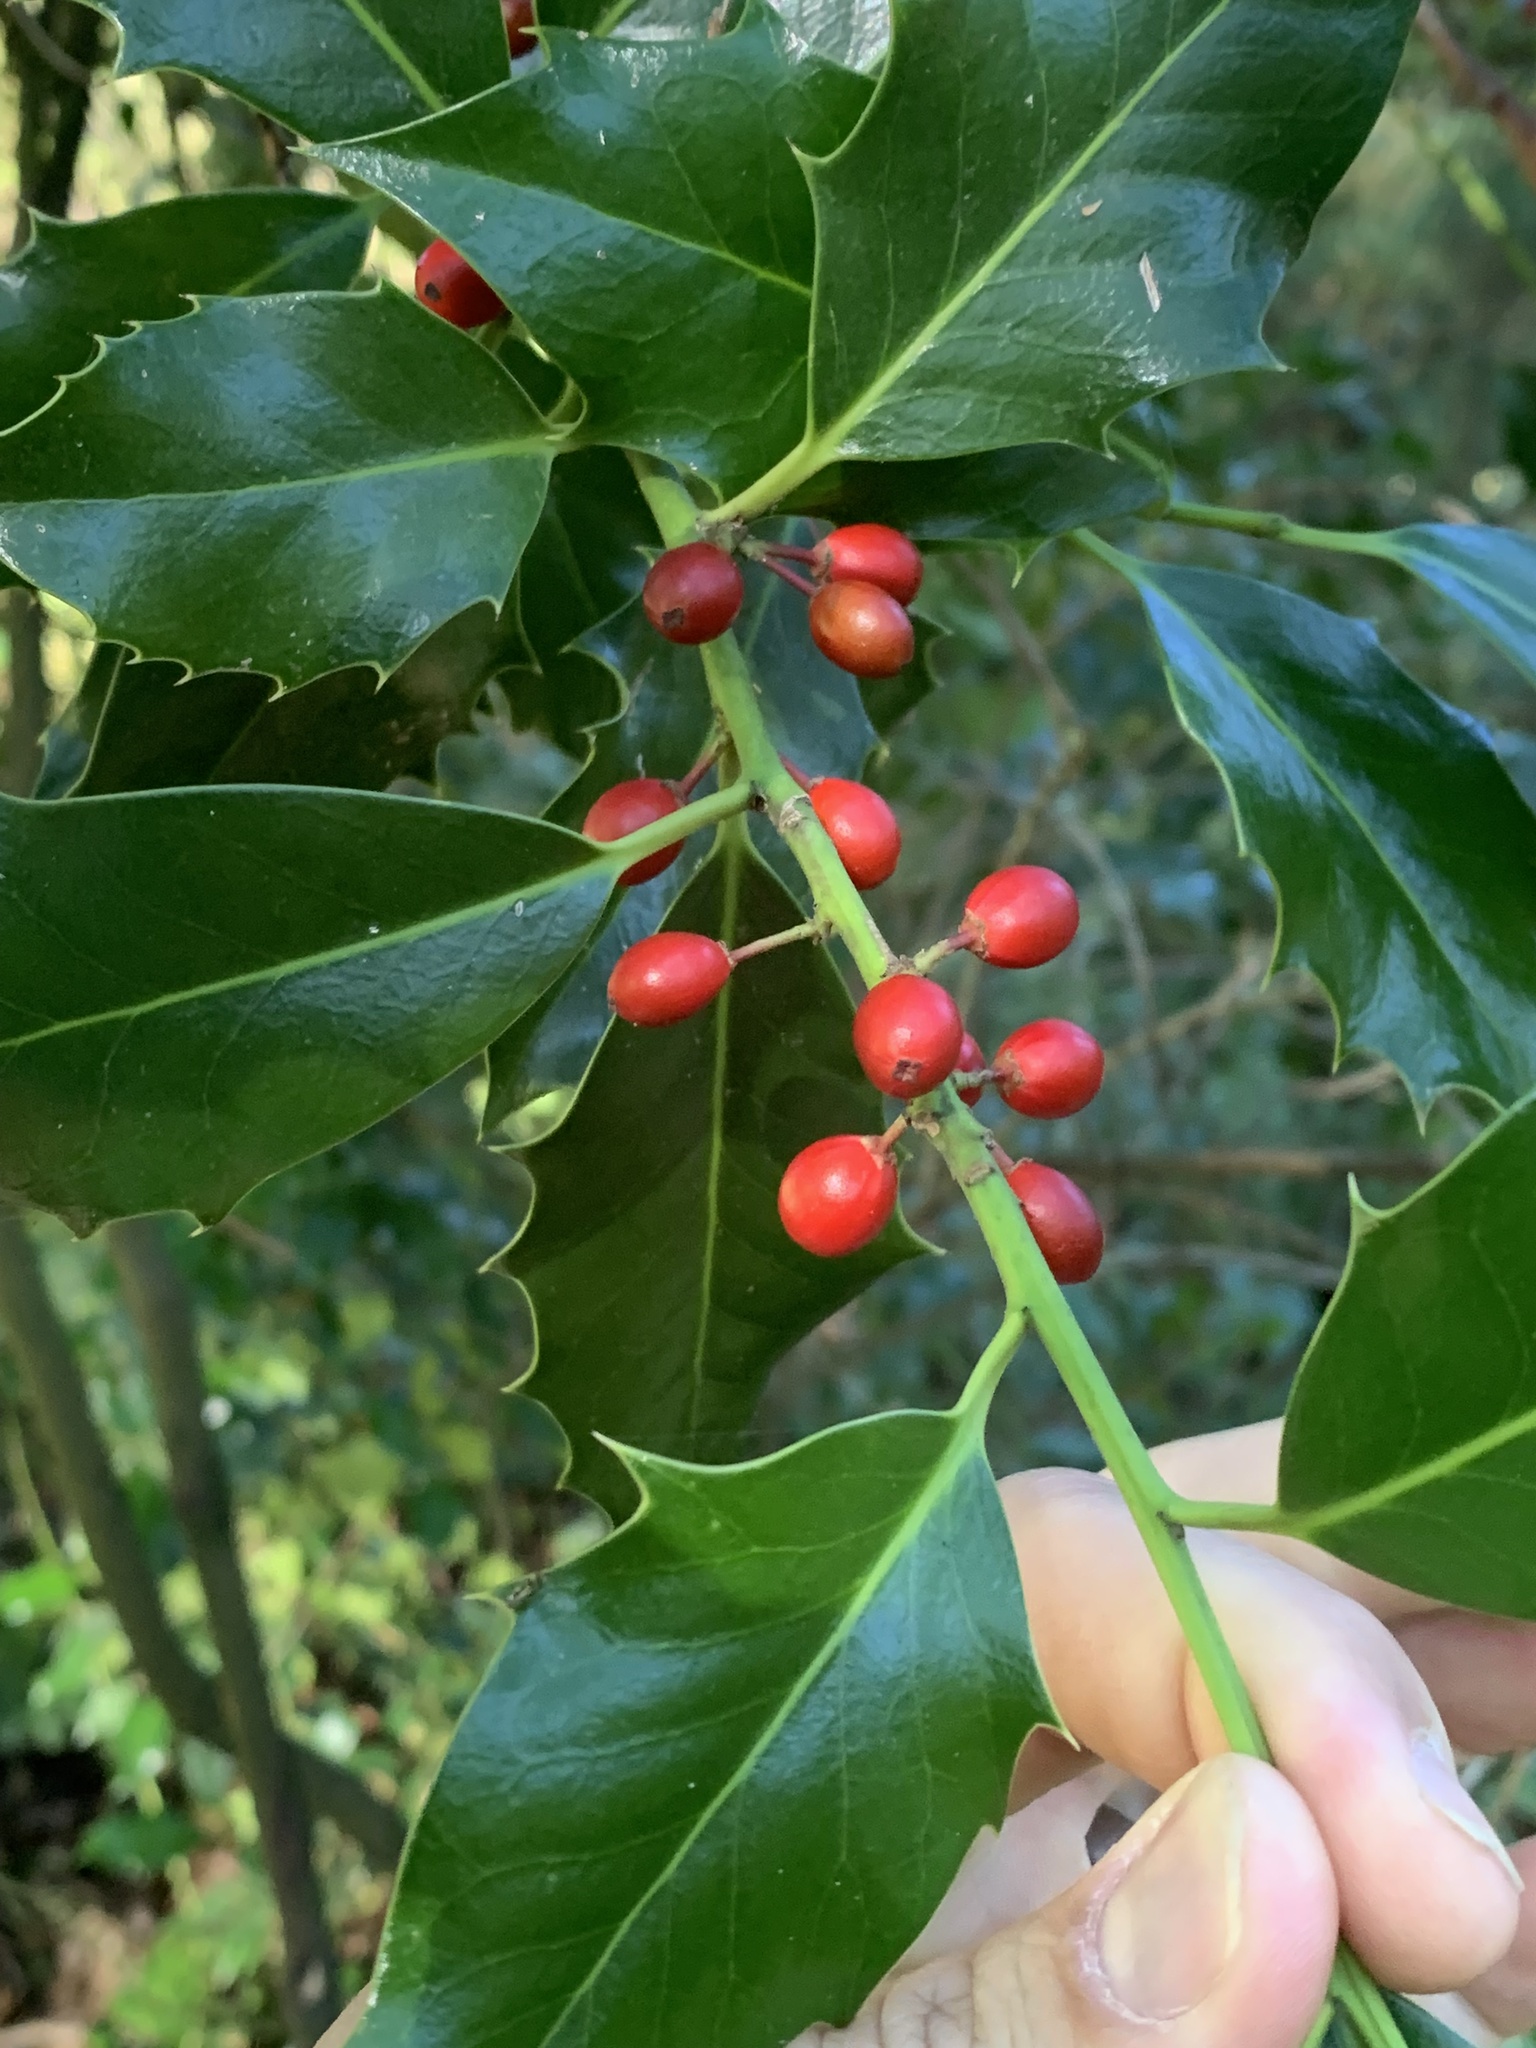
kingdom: Plantae
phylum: Tracheophyta
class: Magnoliopsida
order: Aquifoliales
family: Aquifoliaceae
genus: Ilex
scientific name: Ilex aquifolium
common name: English holly
